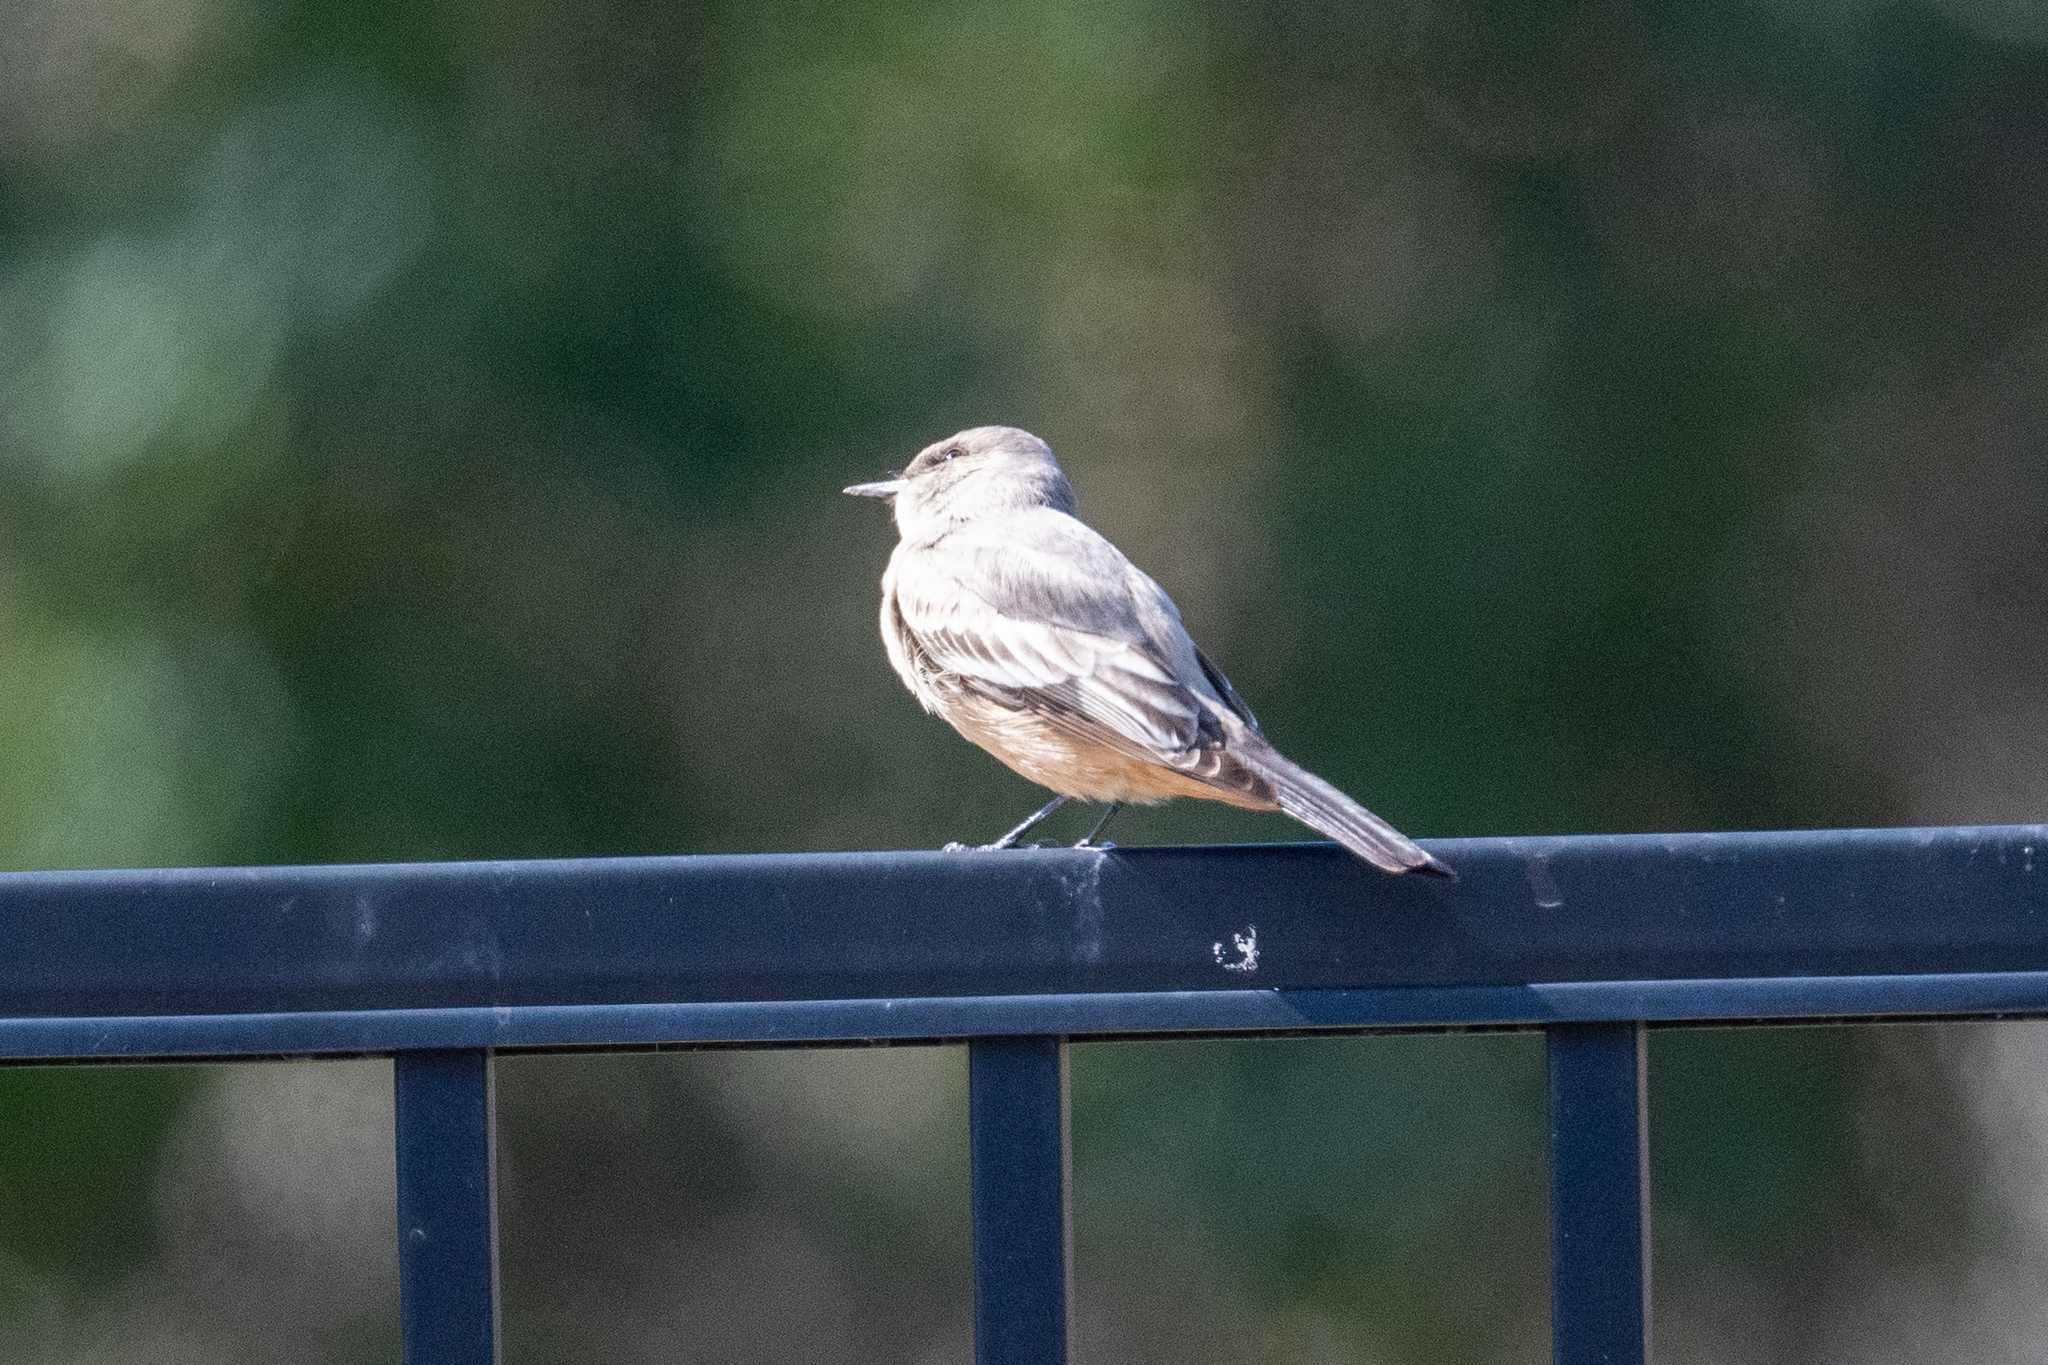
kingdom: Animalia
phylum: Chordata
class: Aves
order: Passeriformes
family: Tyrannidae
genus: Sayornis
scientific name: Sayornis saya
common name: Say's phoebe
